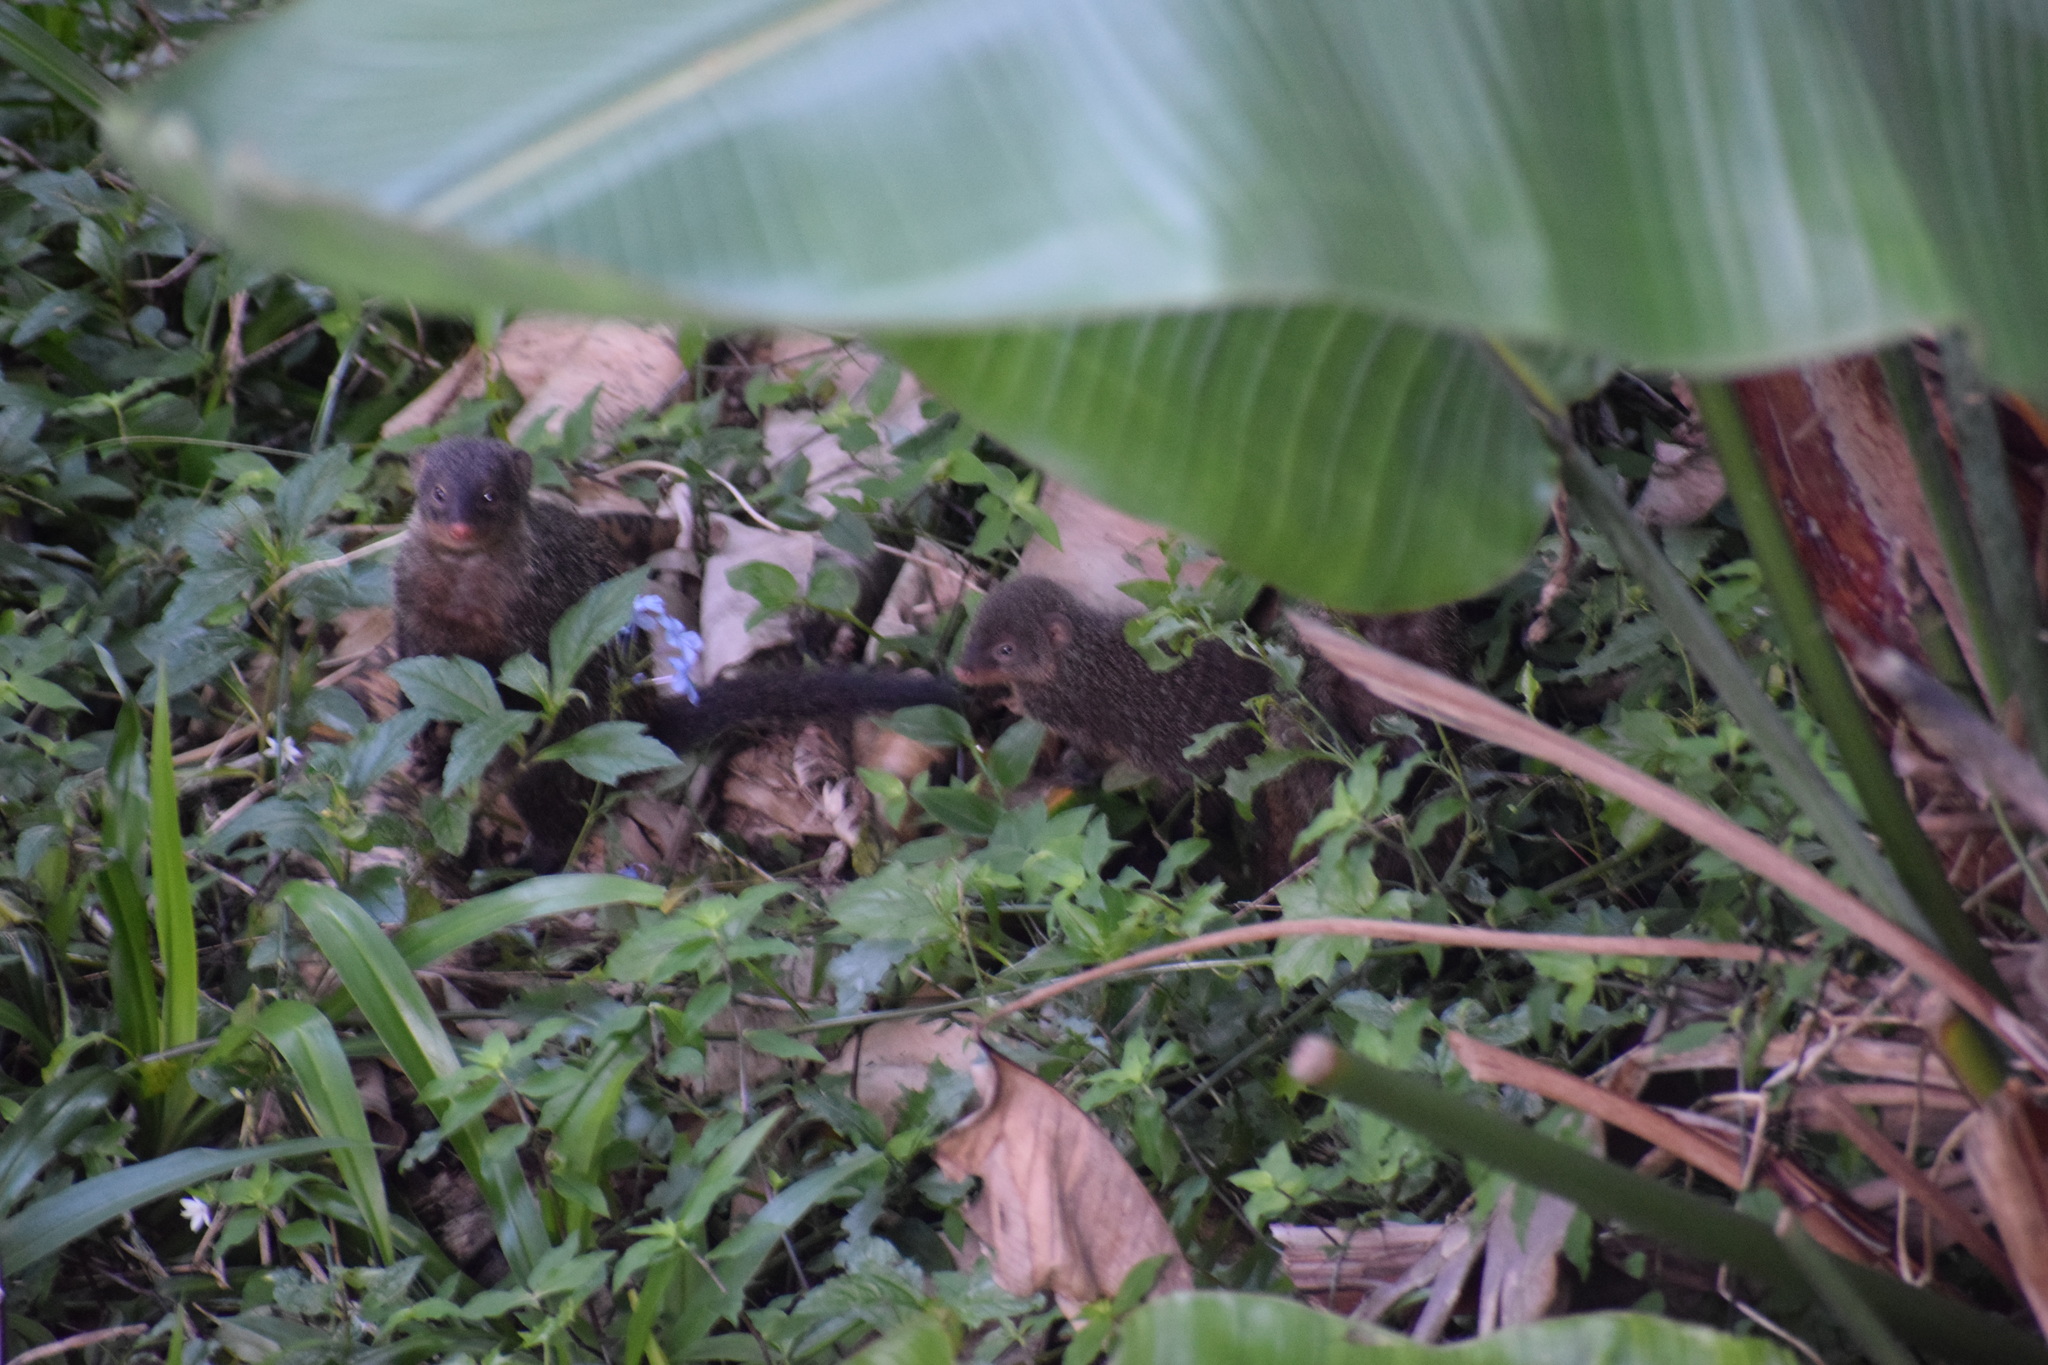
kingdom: Animalia
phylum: Chordata
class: Mammalia
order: Carnivora
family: Herpestidae
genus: Mungos
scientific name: Mungos mungo
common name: Banded mongoose
